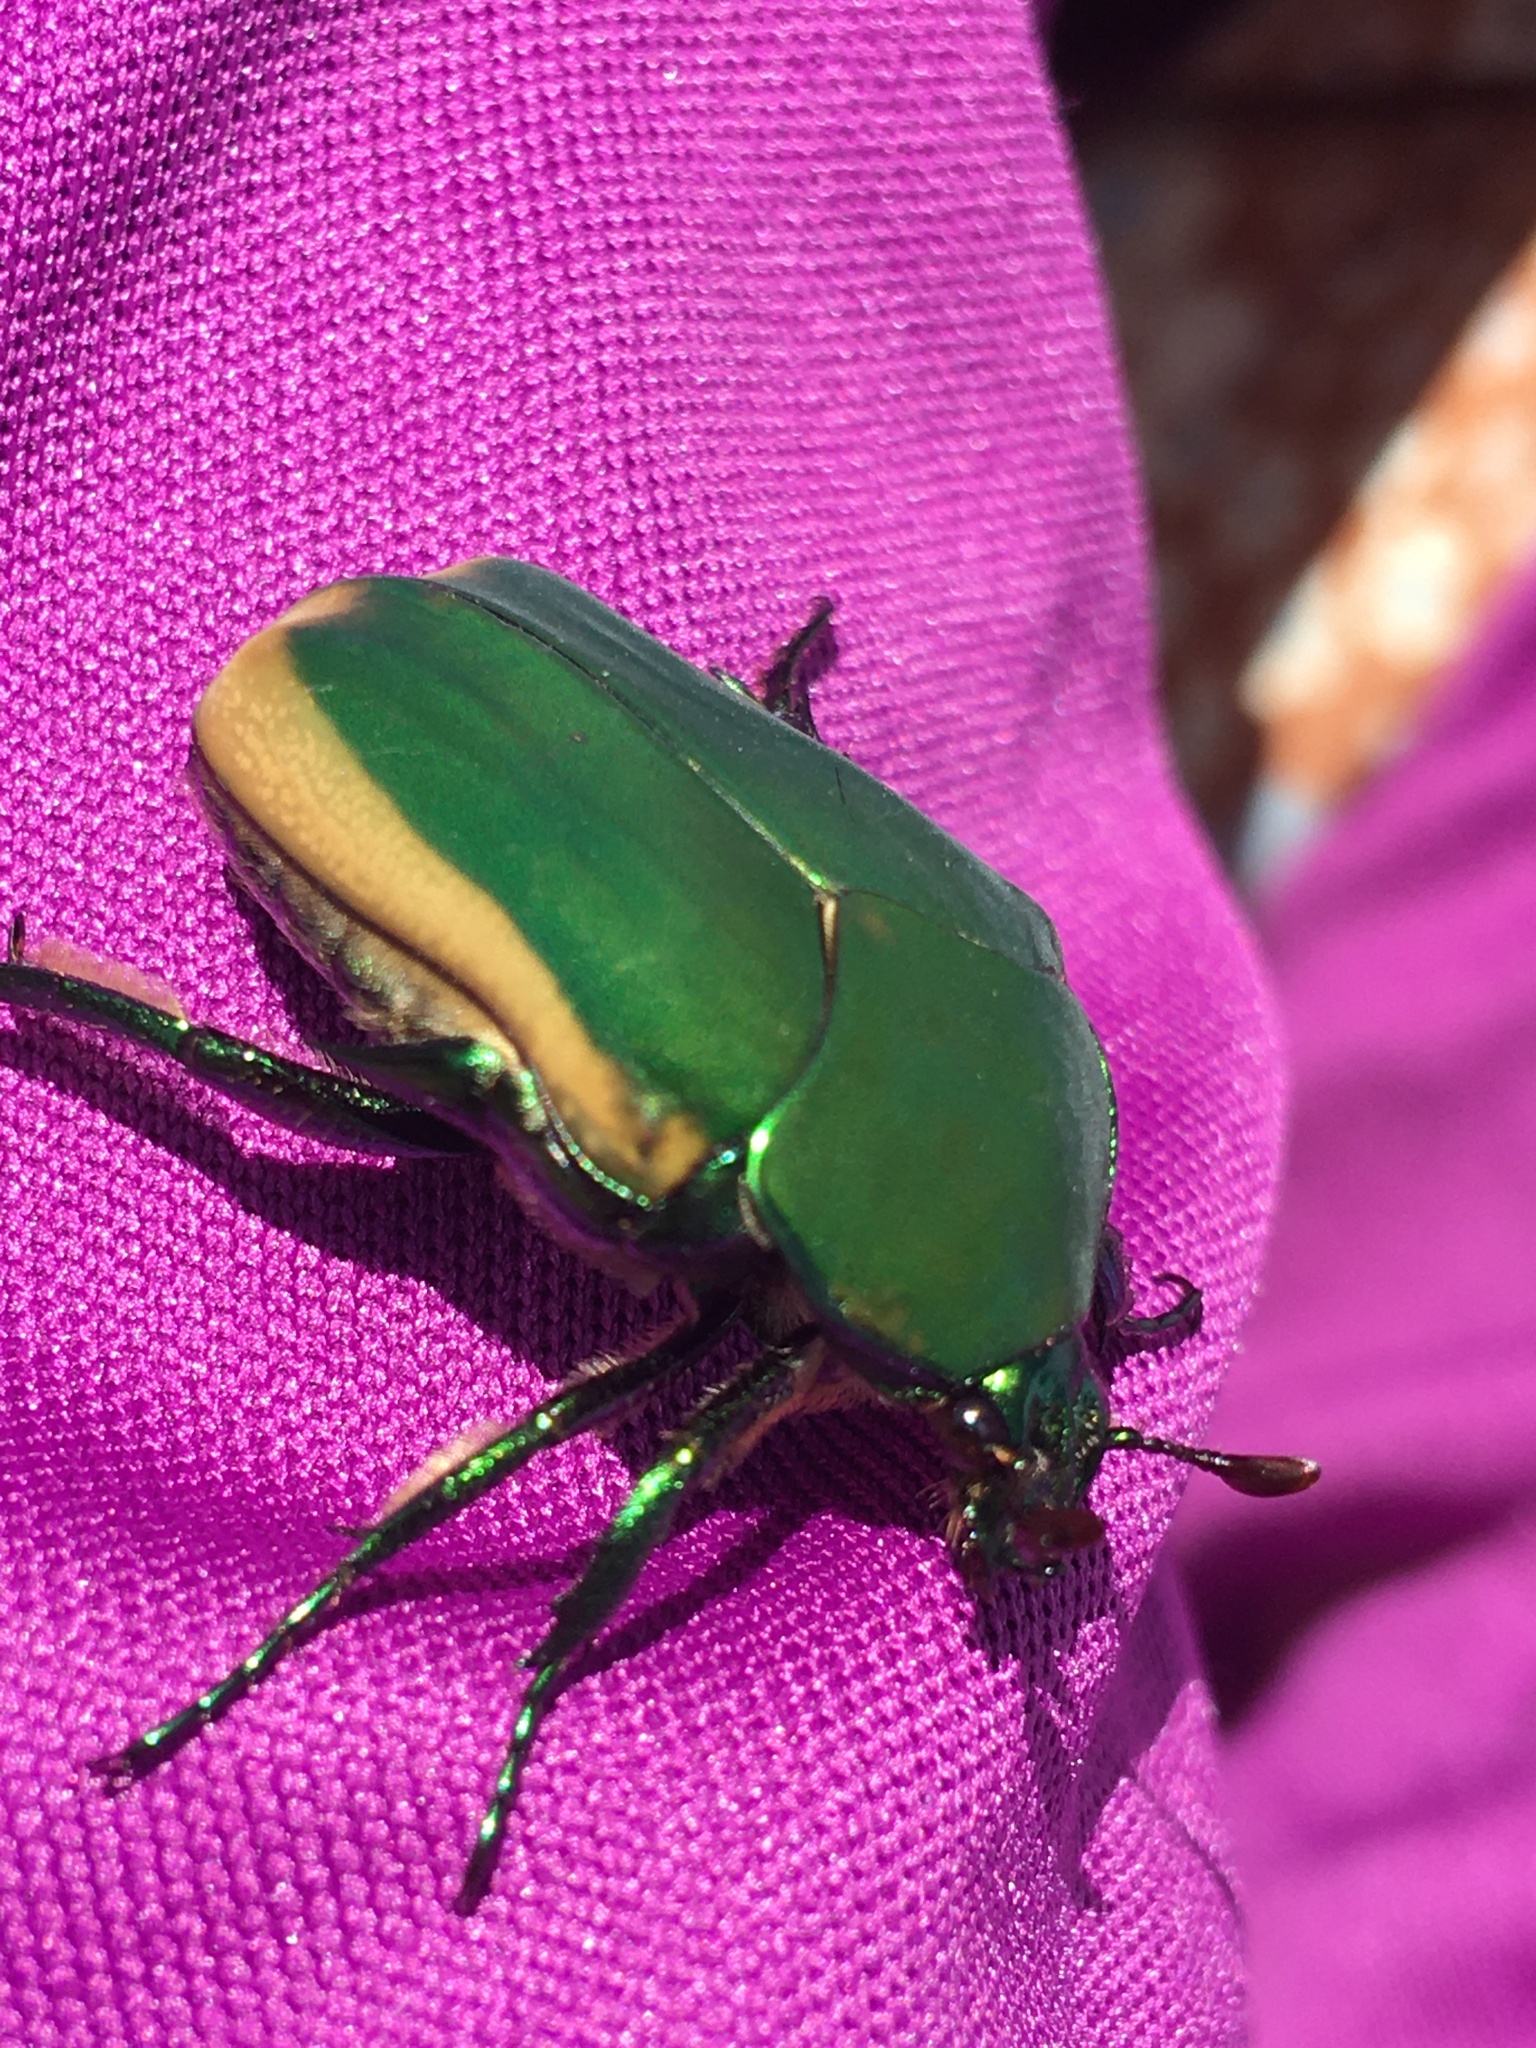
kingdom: Animalia
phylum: Arthropoda
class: Insecta
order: Coleoptera
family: Scarabaeidae
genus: Cotinis
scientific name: Cotinis mutabilis
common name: Figeater beetle
